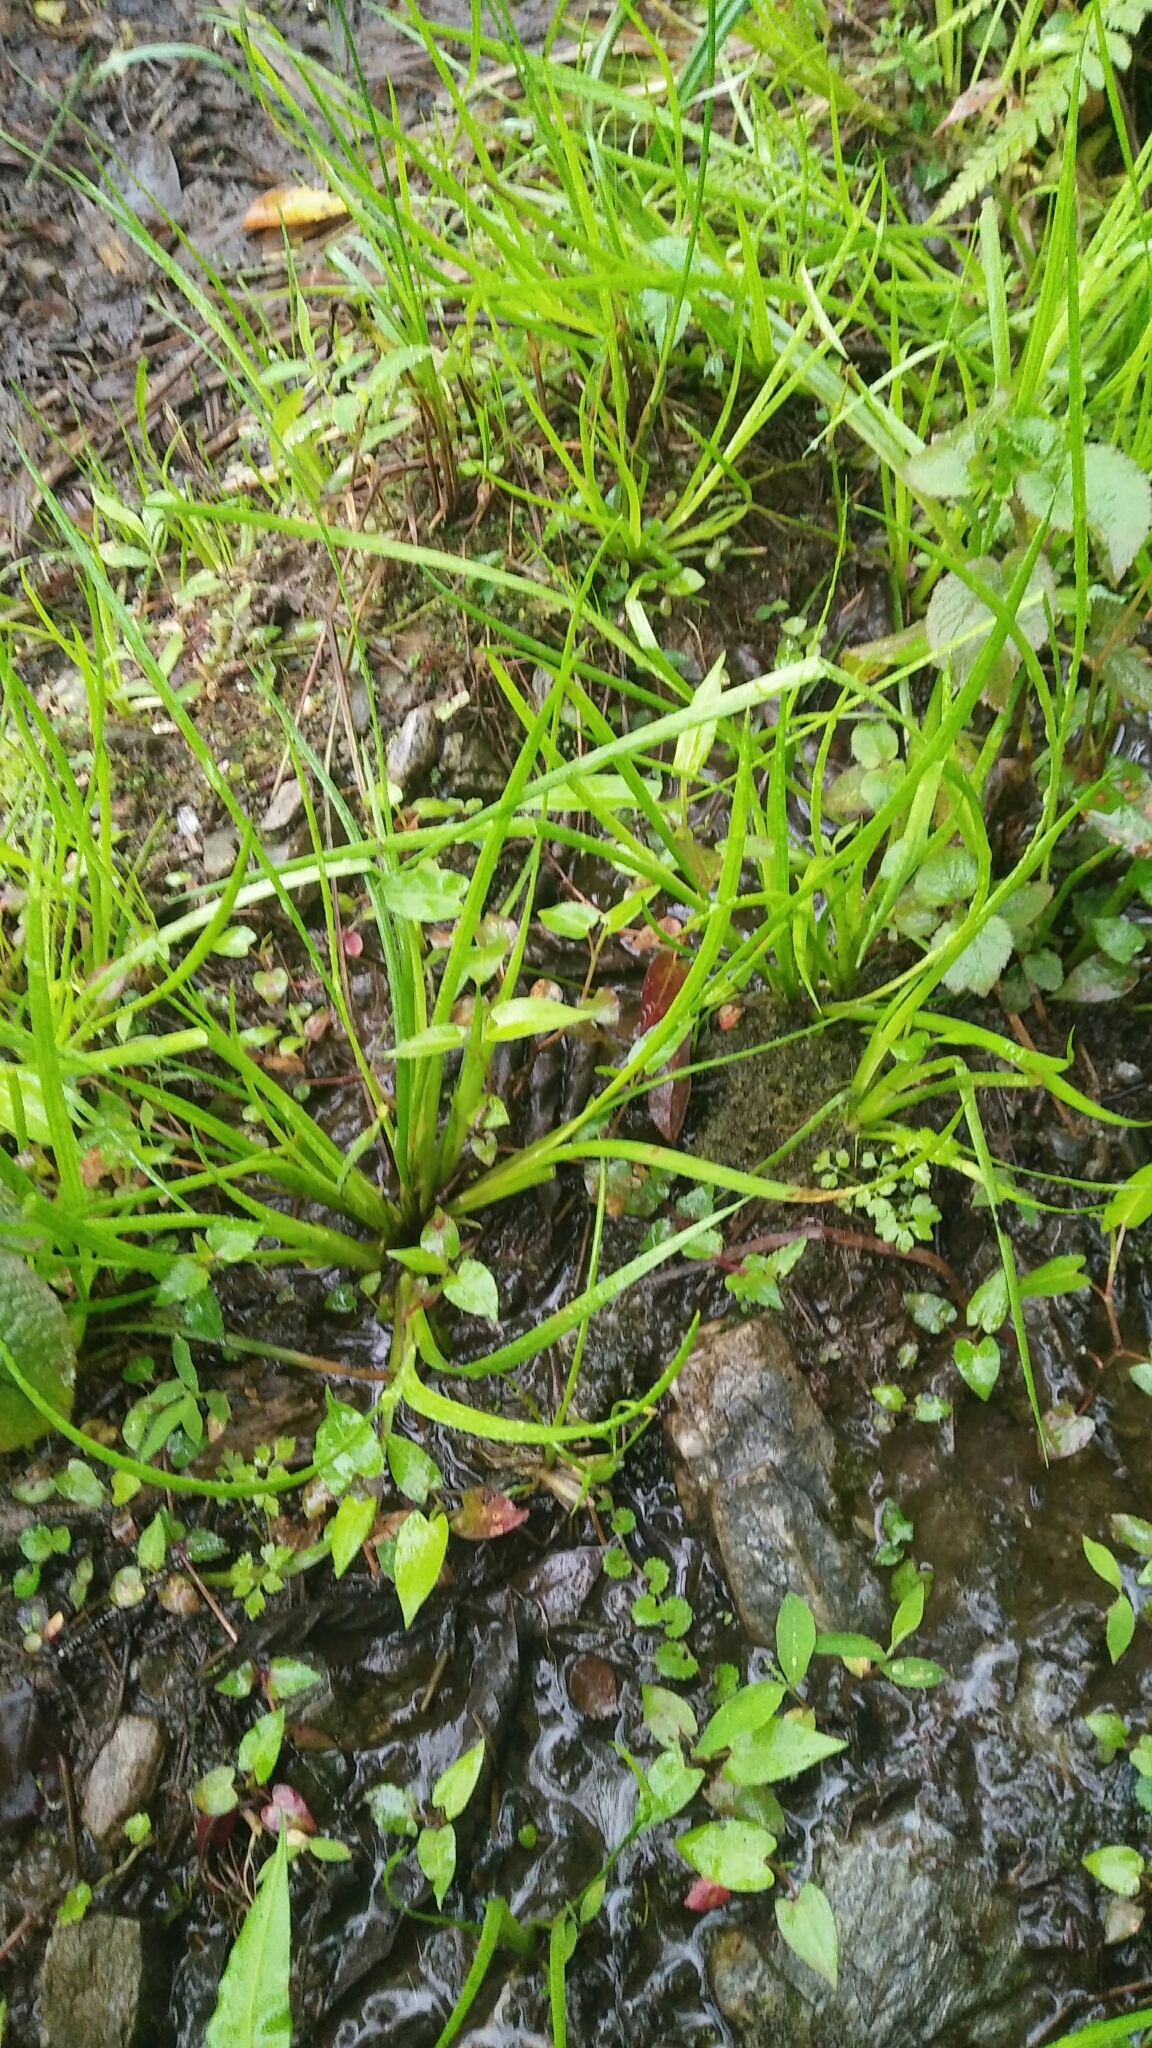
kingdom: Plantae
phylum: Tracheophyta
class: Liliopsida
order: Poales
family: Juncaceae
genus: Juncus
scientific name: Juncus prismatocarpus
